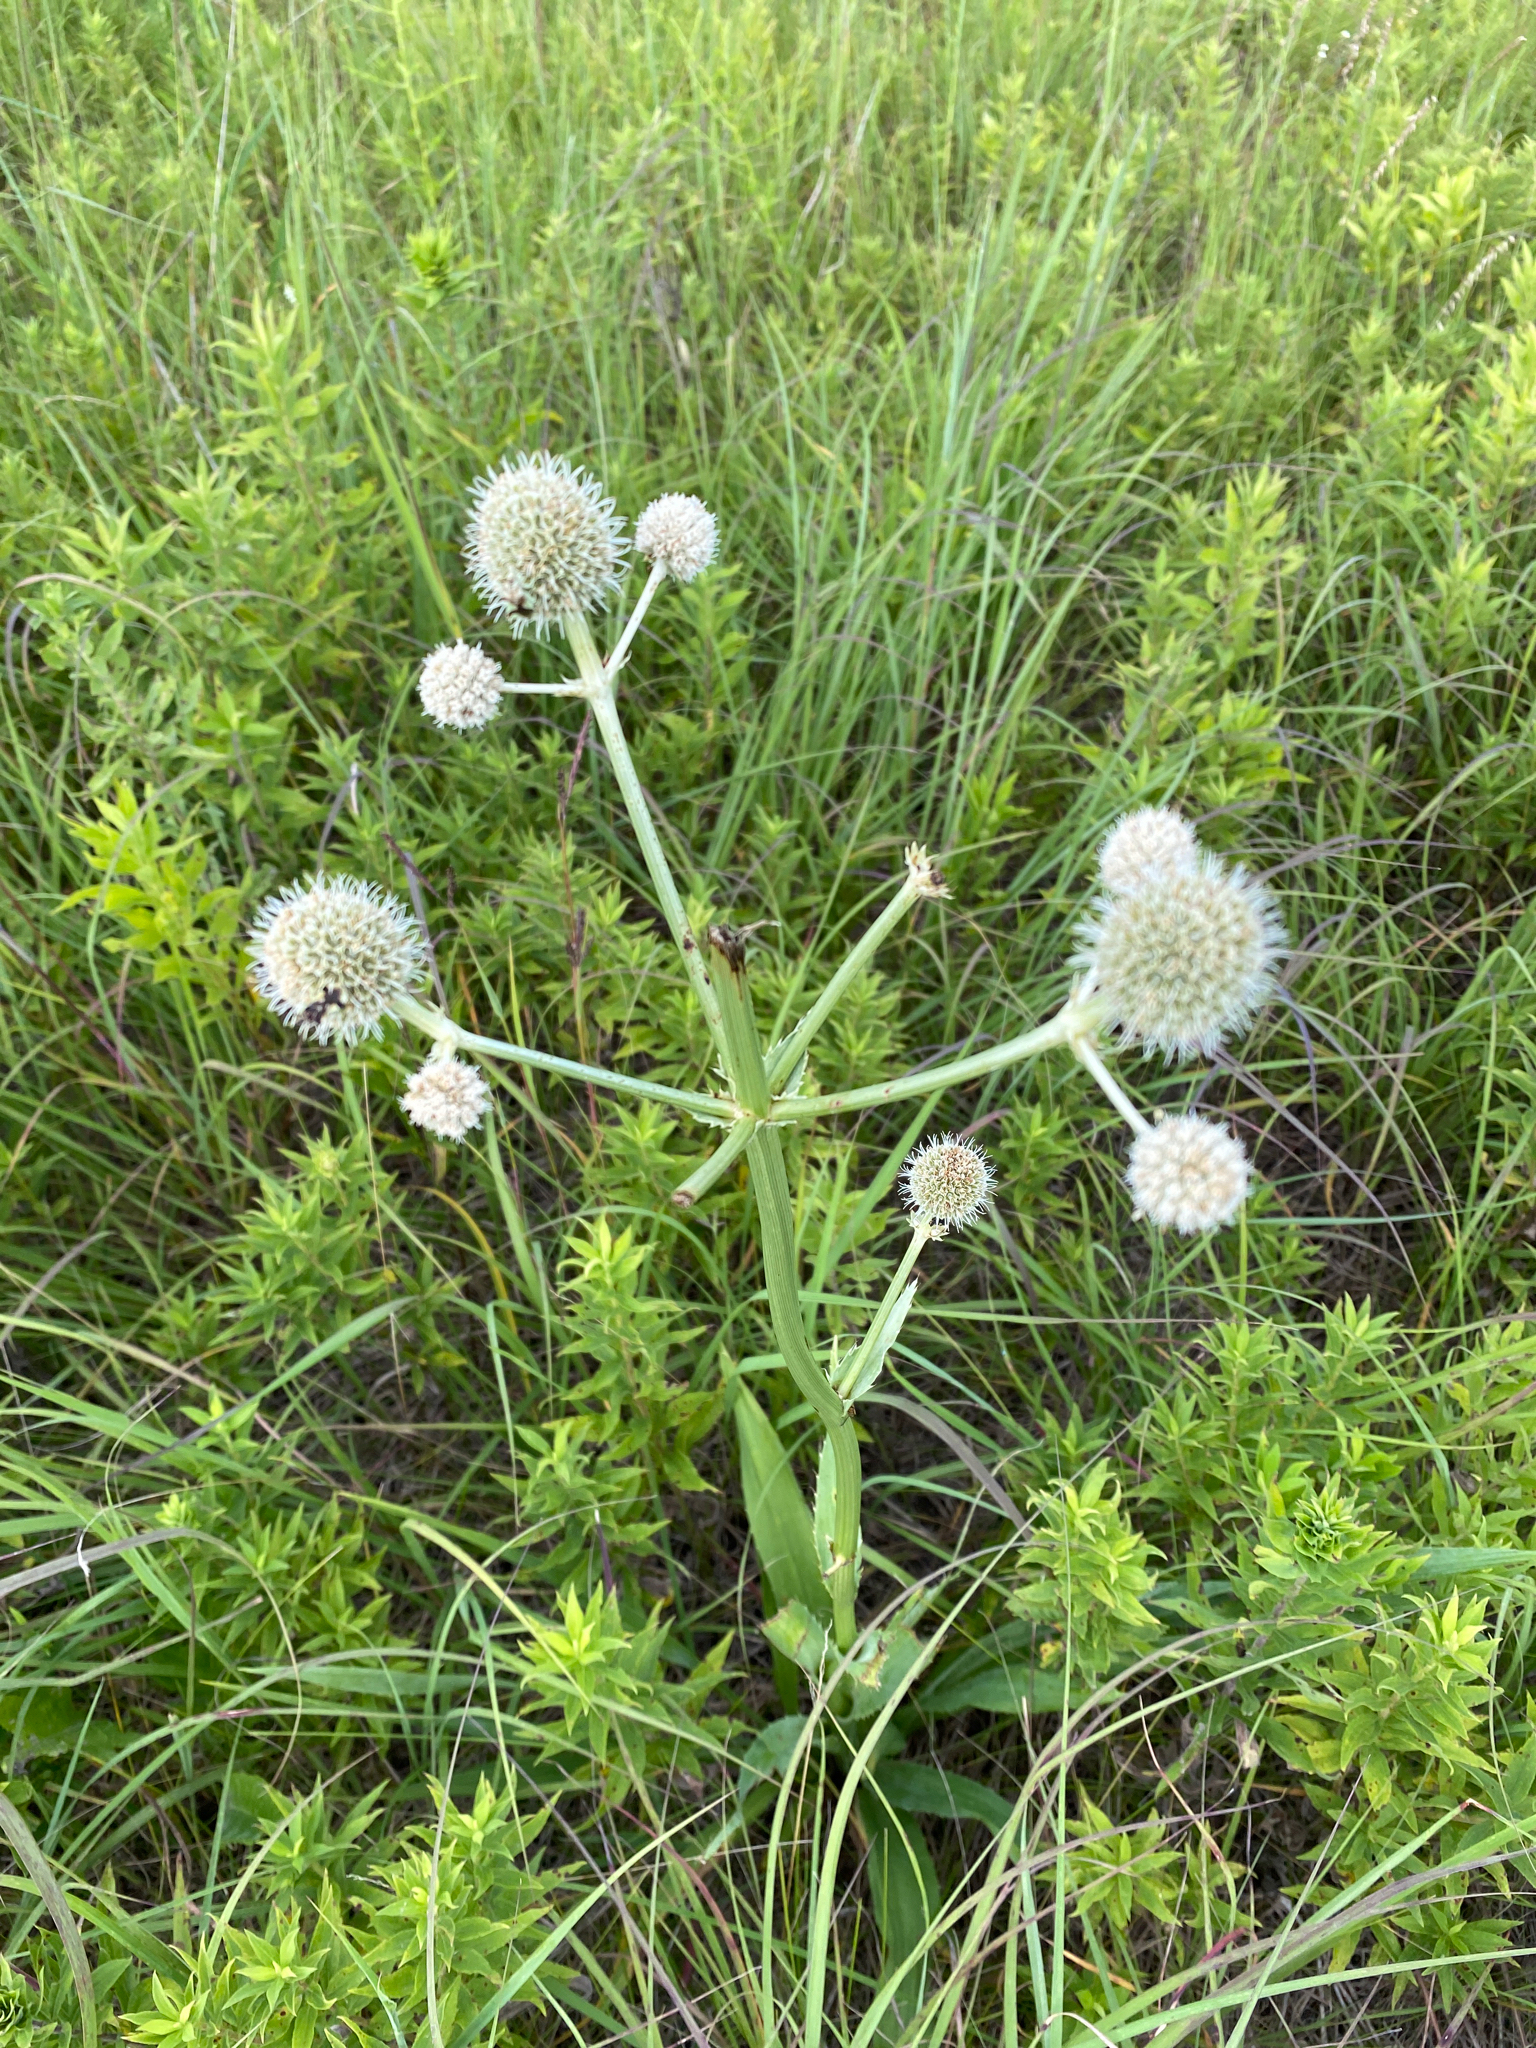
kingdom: Plantae
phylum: Tracheophyta
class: Magnoliopsida
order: Apiales
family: Apiaceae
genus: Eryngium
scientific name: Eryngium yuccifolium
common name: Button eryngo
